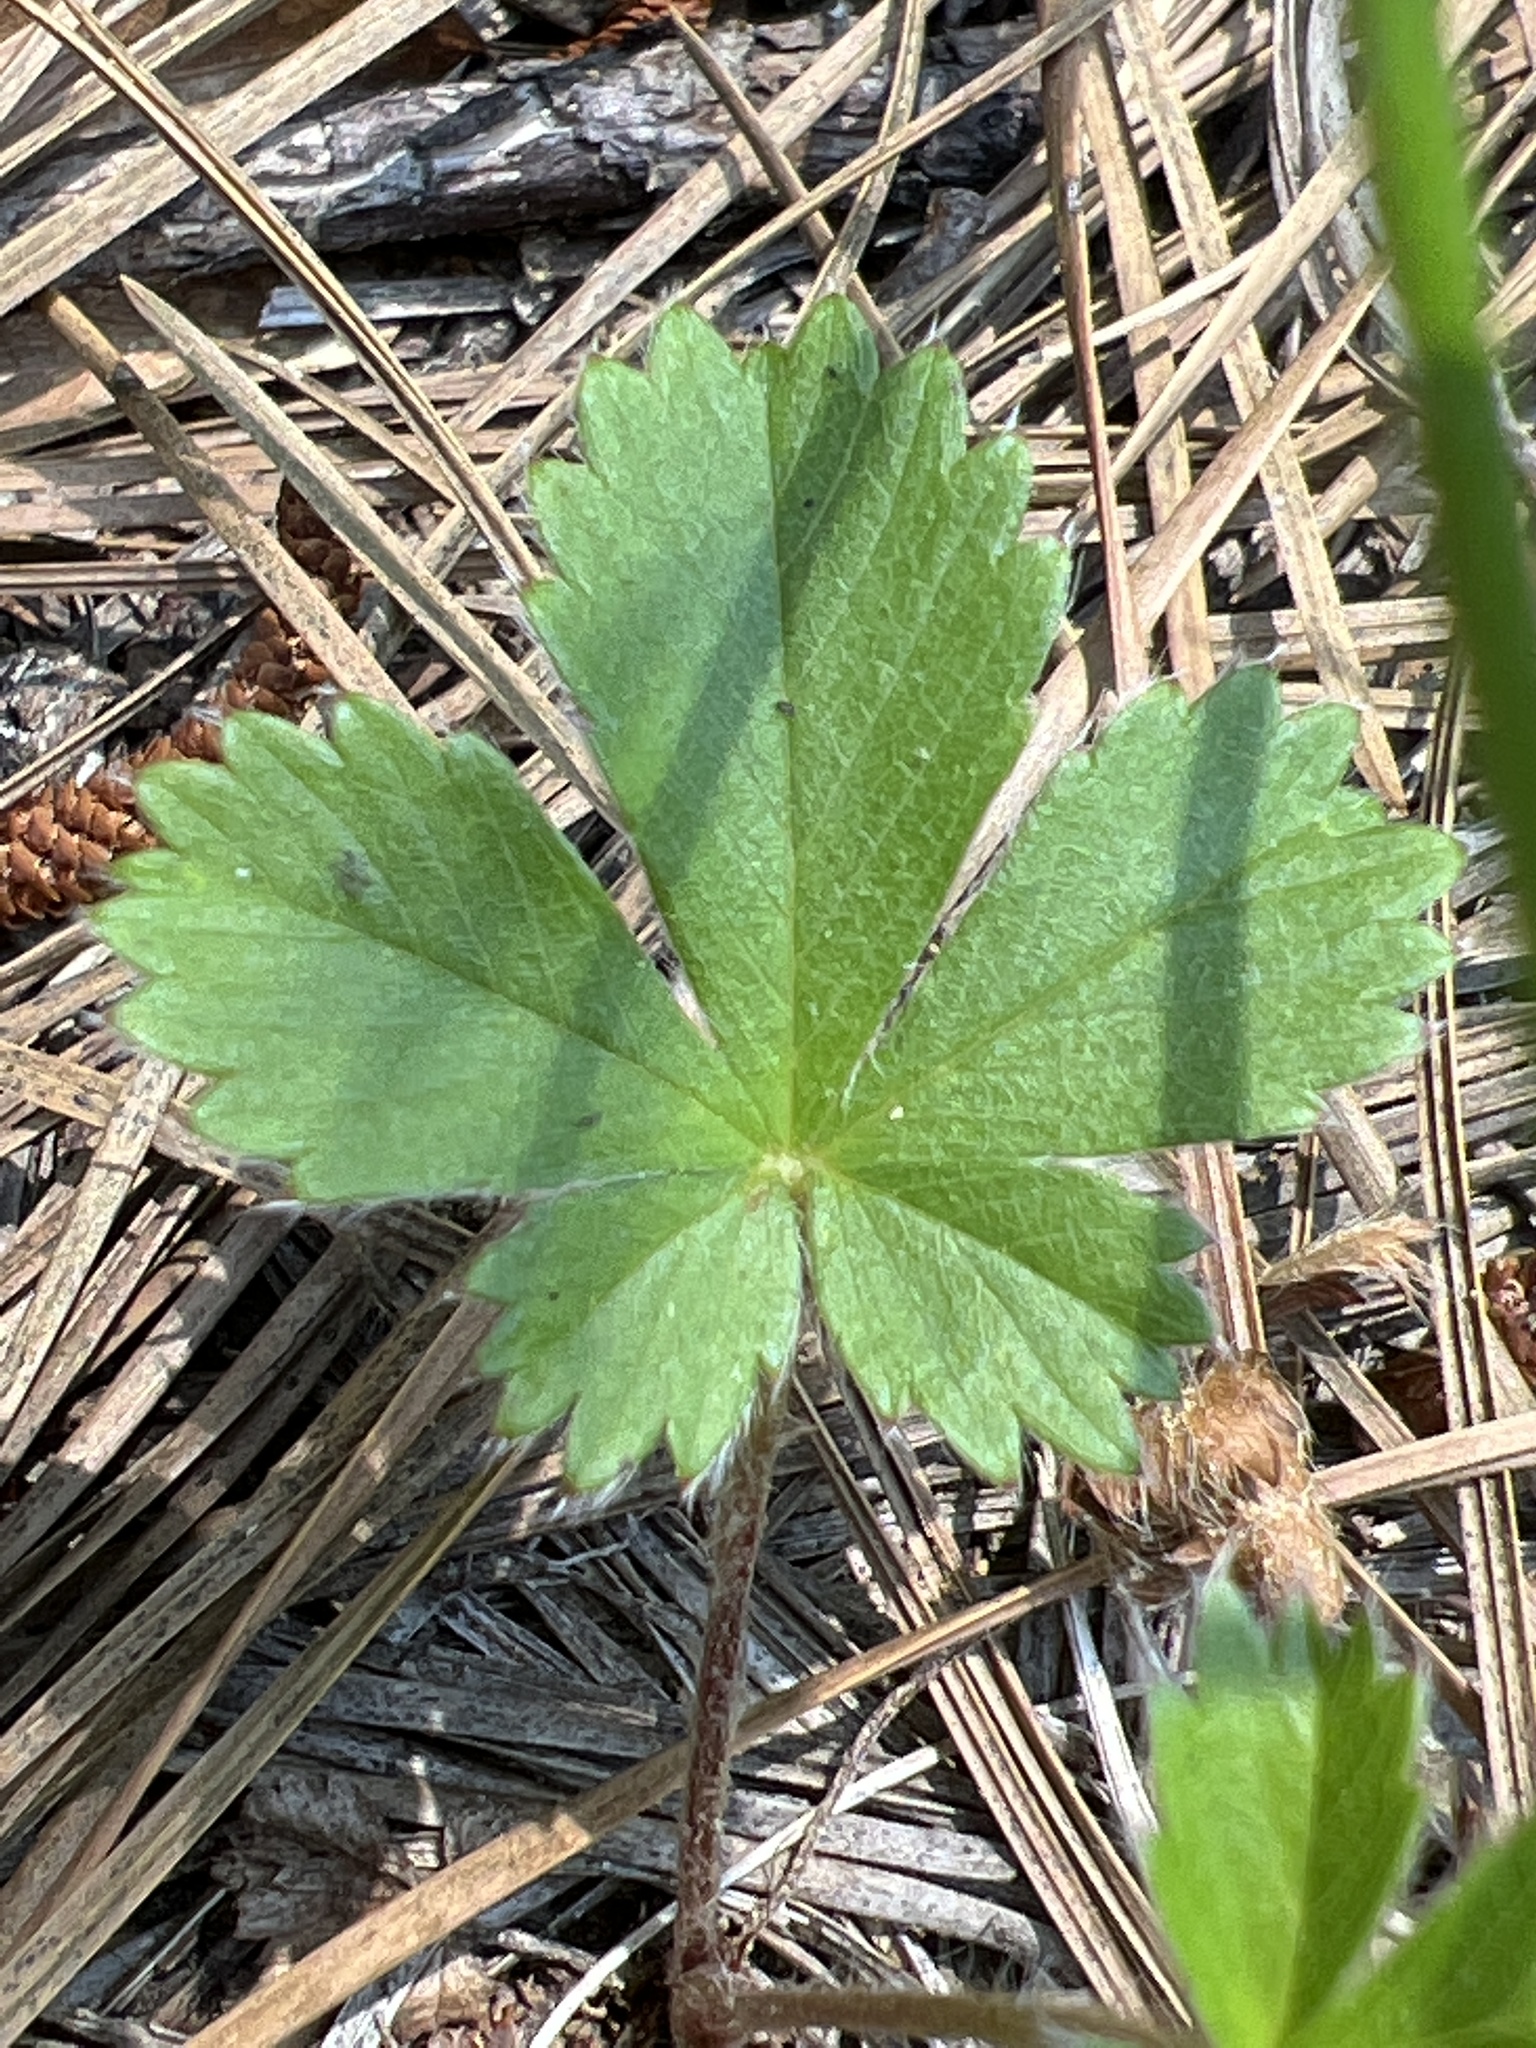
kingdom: Plantae
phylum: Tracheophyta
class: Magnoliopsida
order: Rosales
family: Rosaceae
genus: Potentilla
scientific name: Potentilla canadensis
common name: Canada cinquefoil
